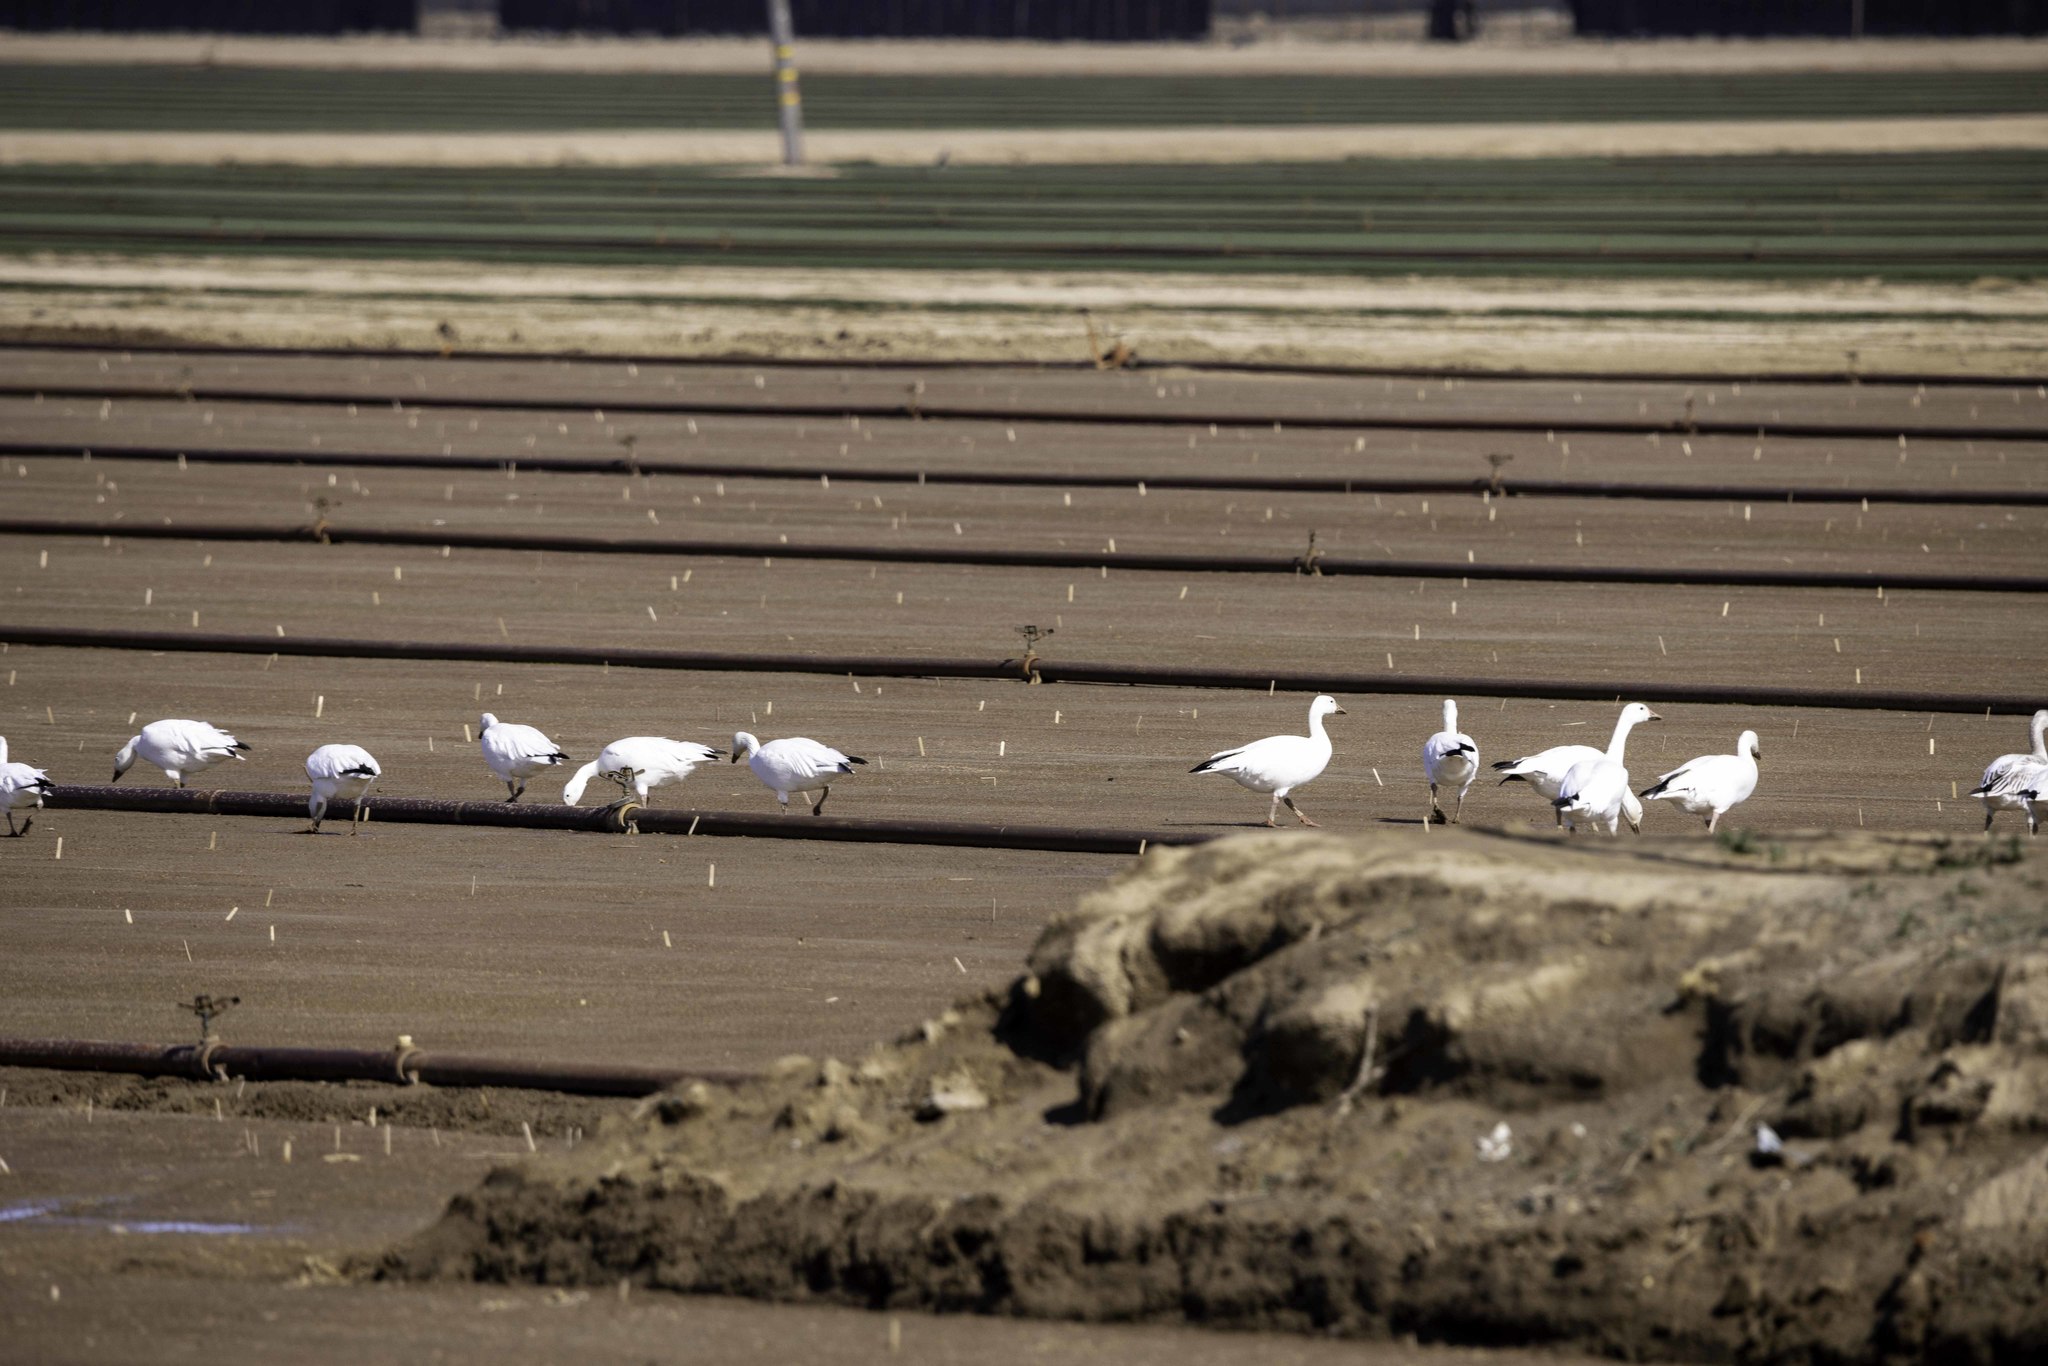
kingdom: Animalia
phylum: Chordata
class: Aves
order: Anseriformes
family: Anatidae
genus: Anser
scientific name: Anser caerulescens
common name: Snow goose
